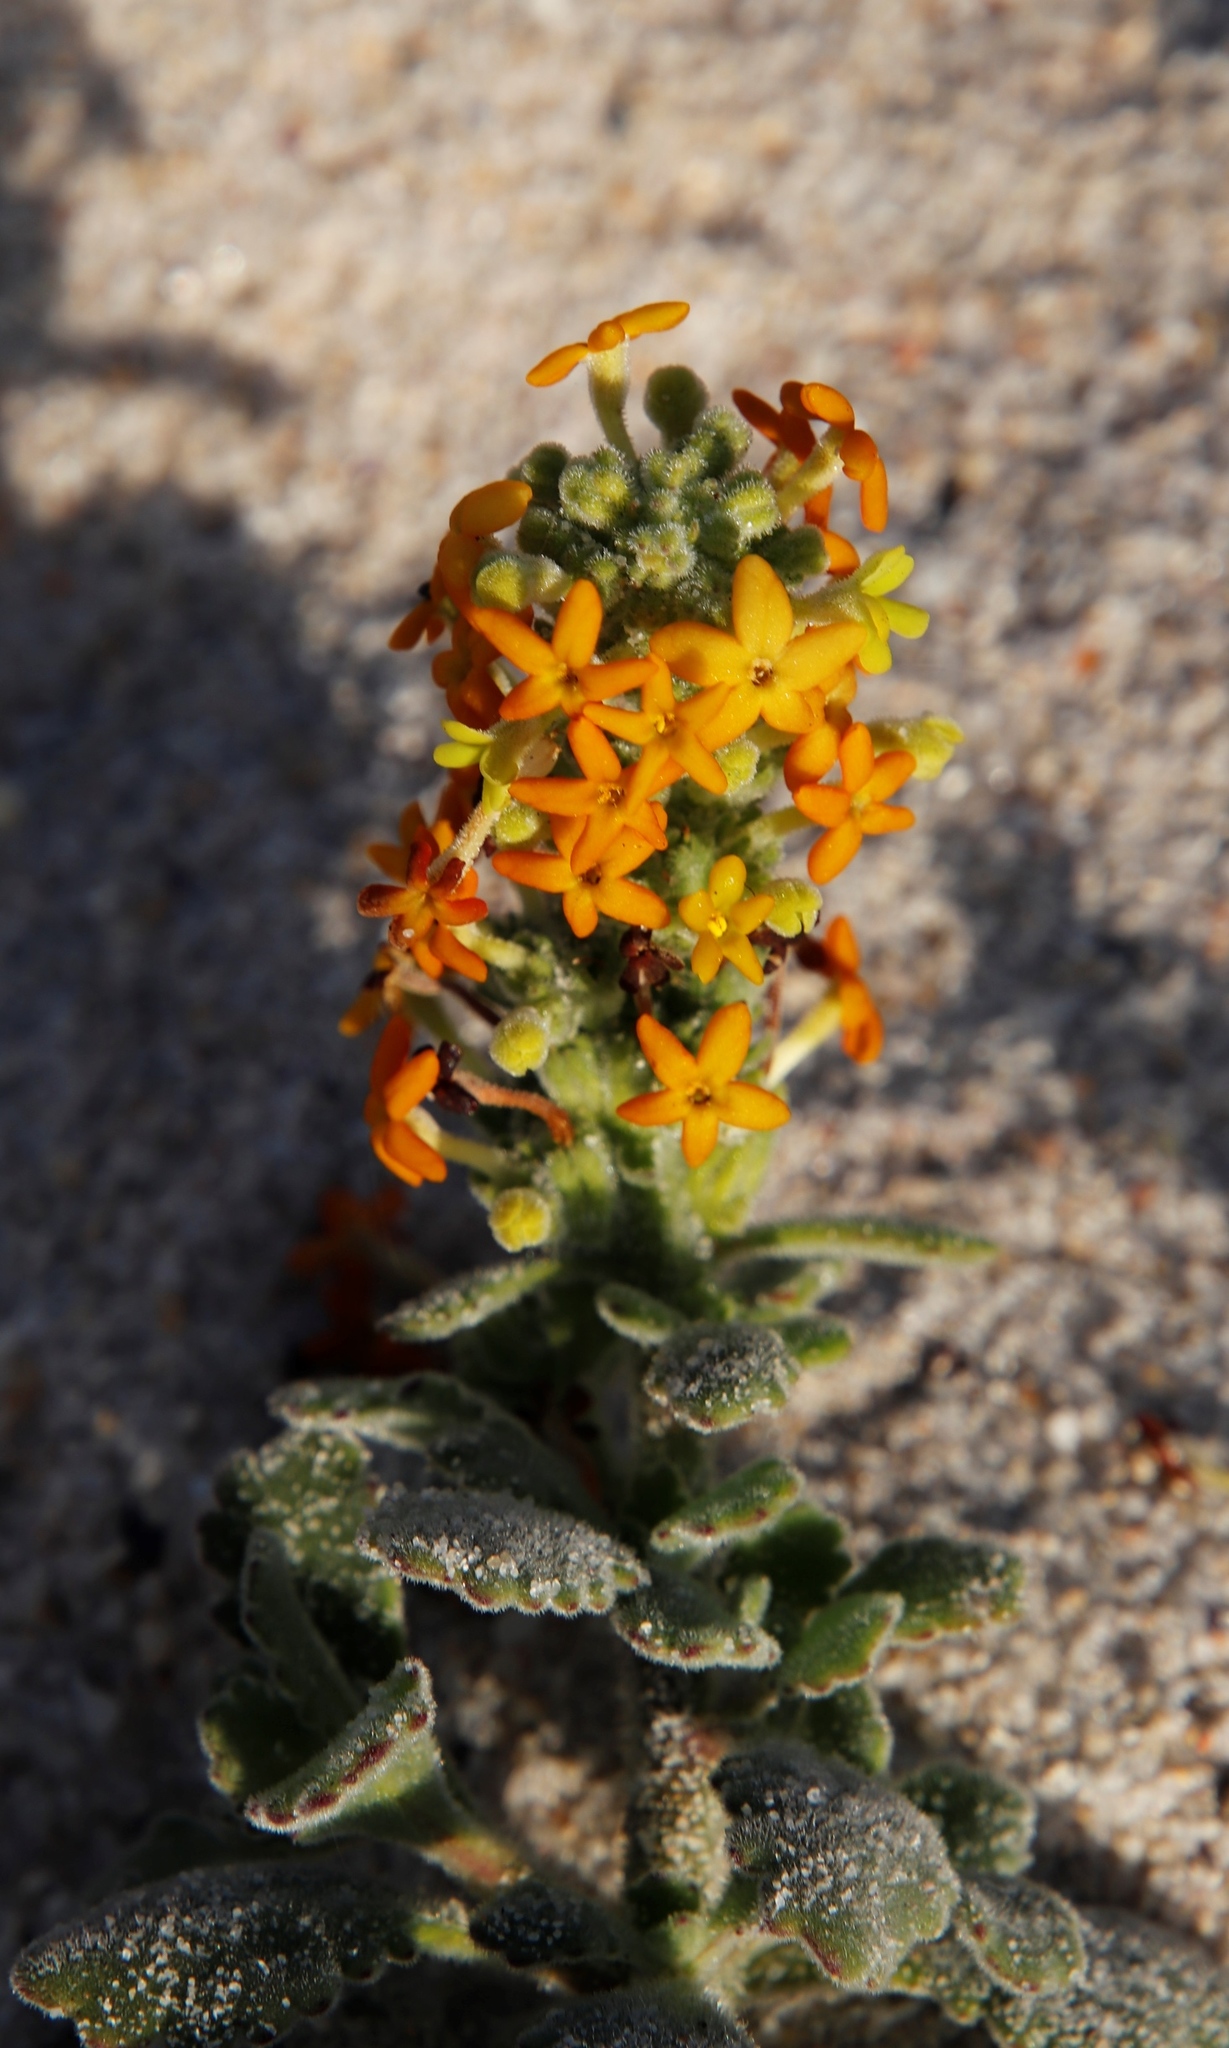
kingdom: Plantae
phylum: Tracheophyta
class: Magnoliopsida
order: Lamiales
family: Scrophulariaceae
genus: Manulea
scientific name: Manulea tomentosa
